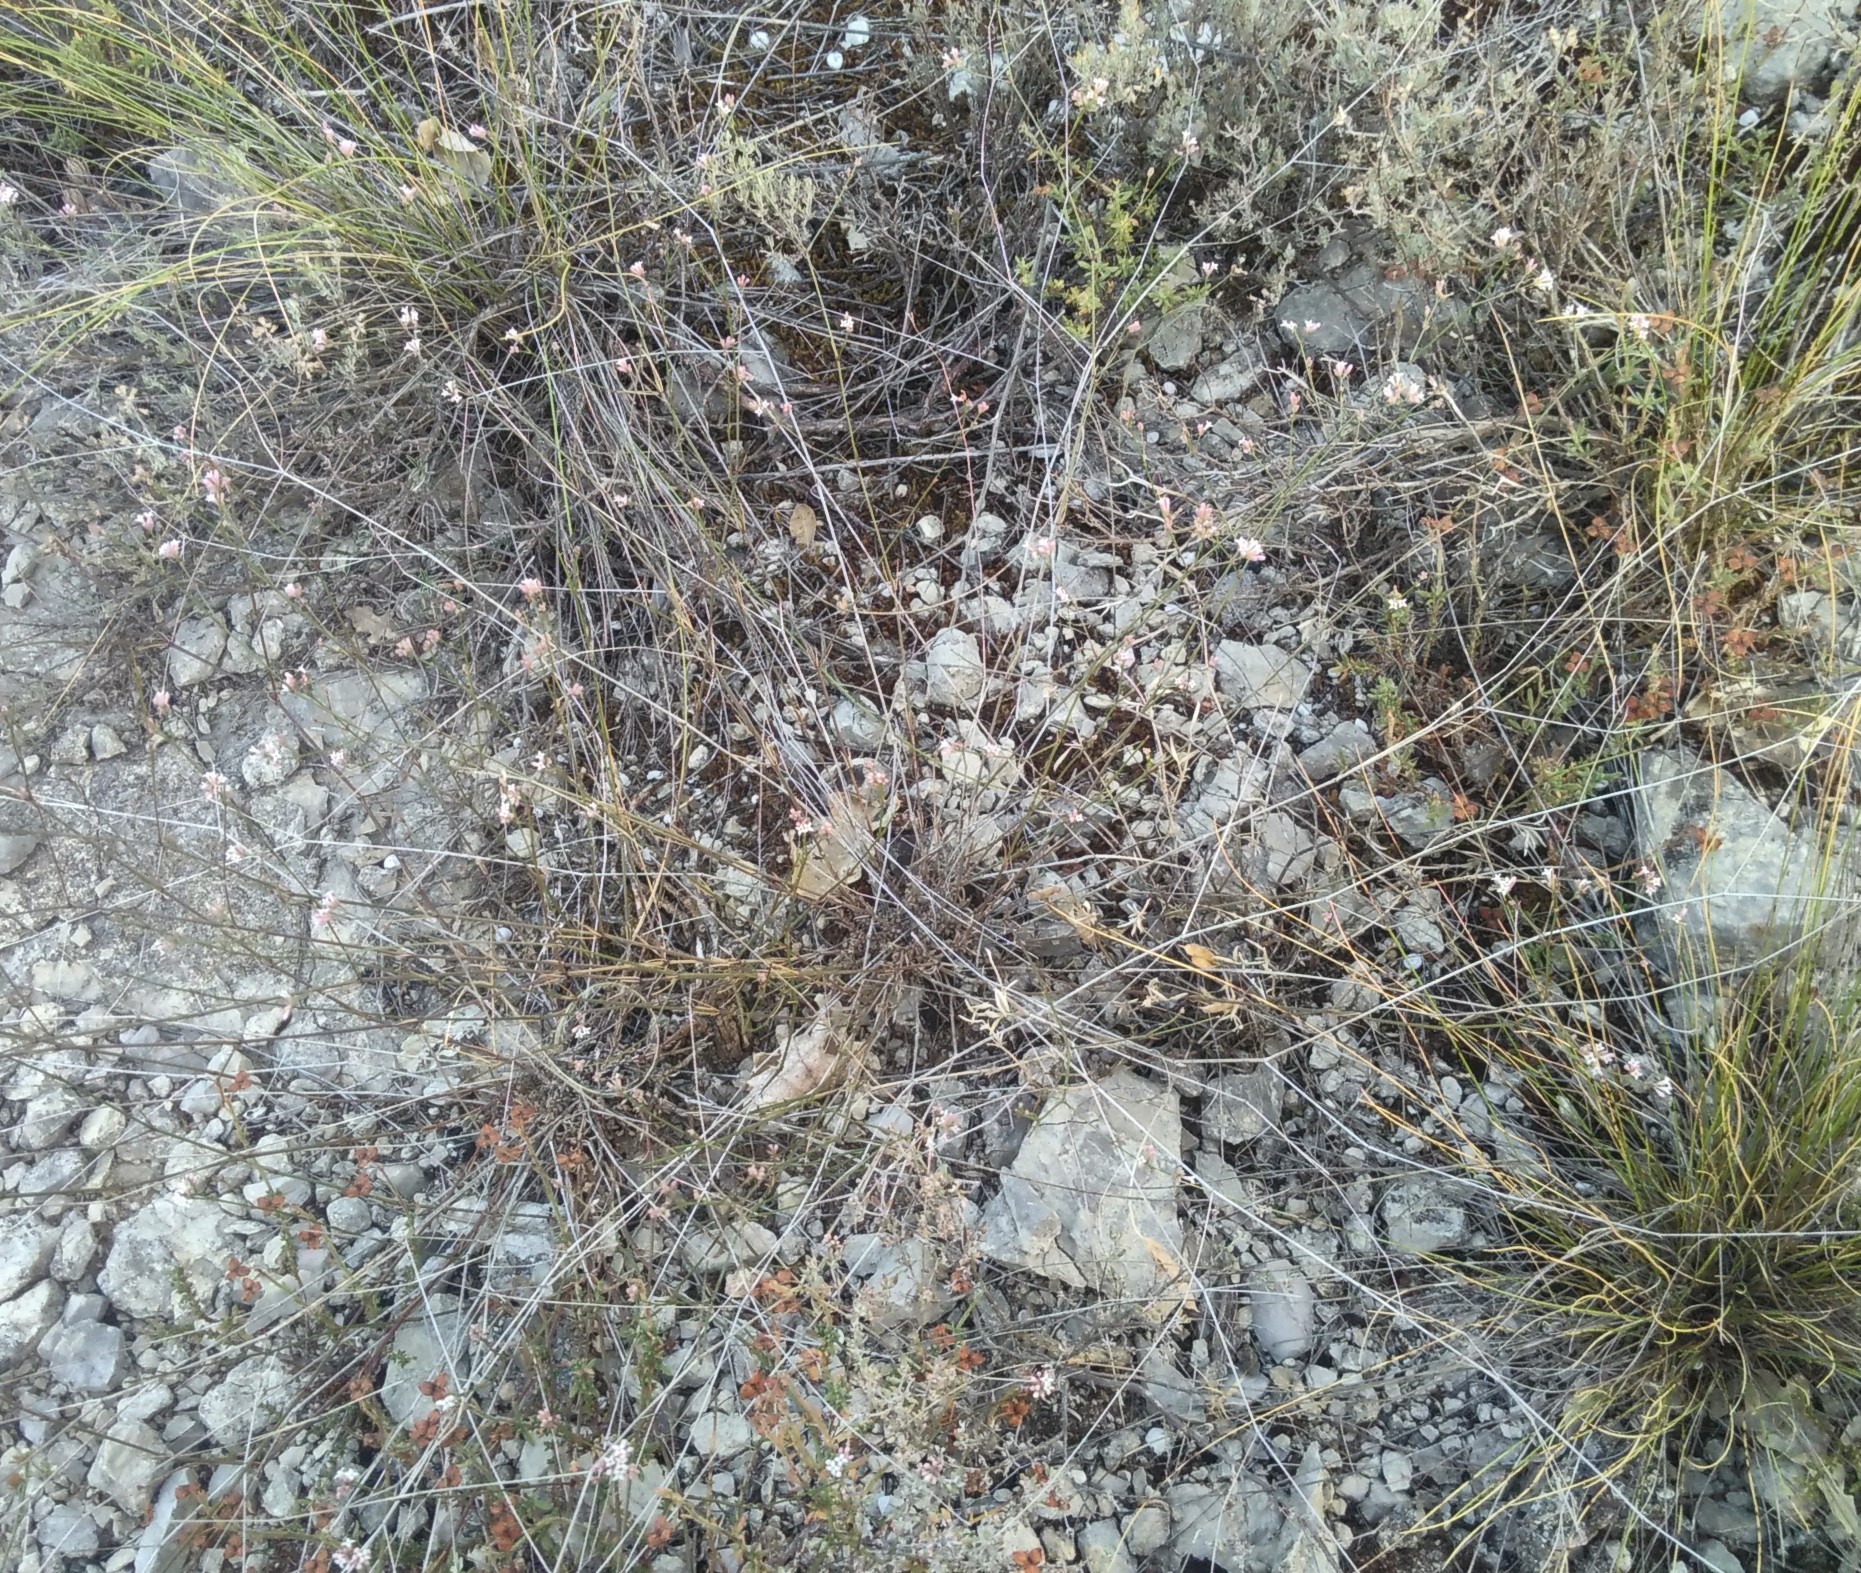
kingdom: Plantae
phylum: Tracheophyta
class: Magnoliopsida
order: Gentianales
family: Rubiaceae
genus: Cynanchica
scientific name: Cynanchica pyrenaica
